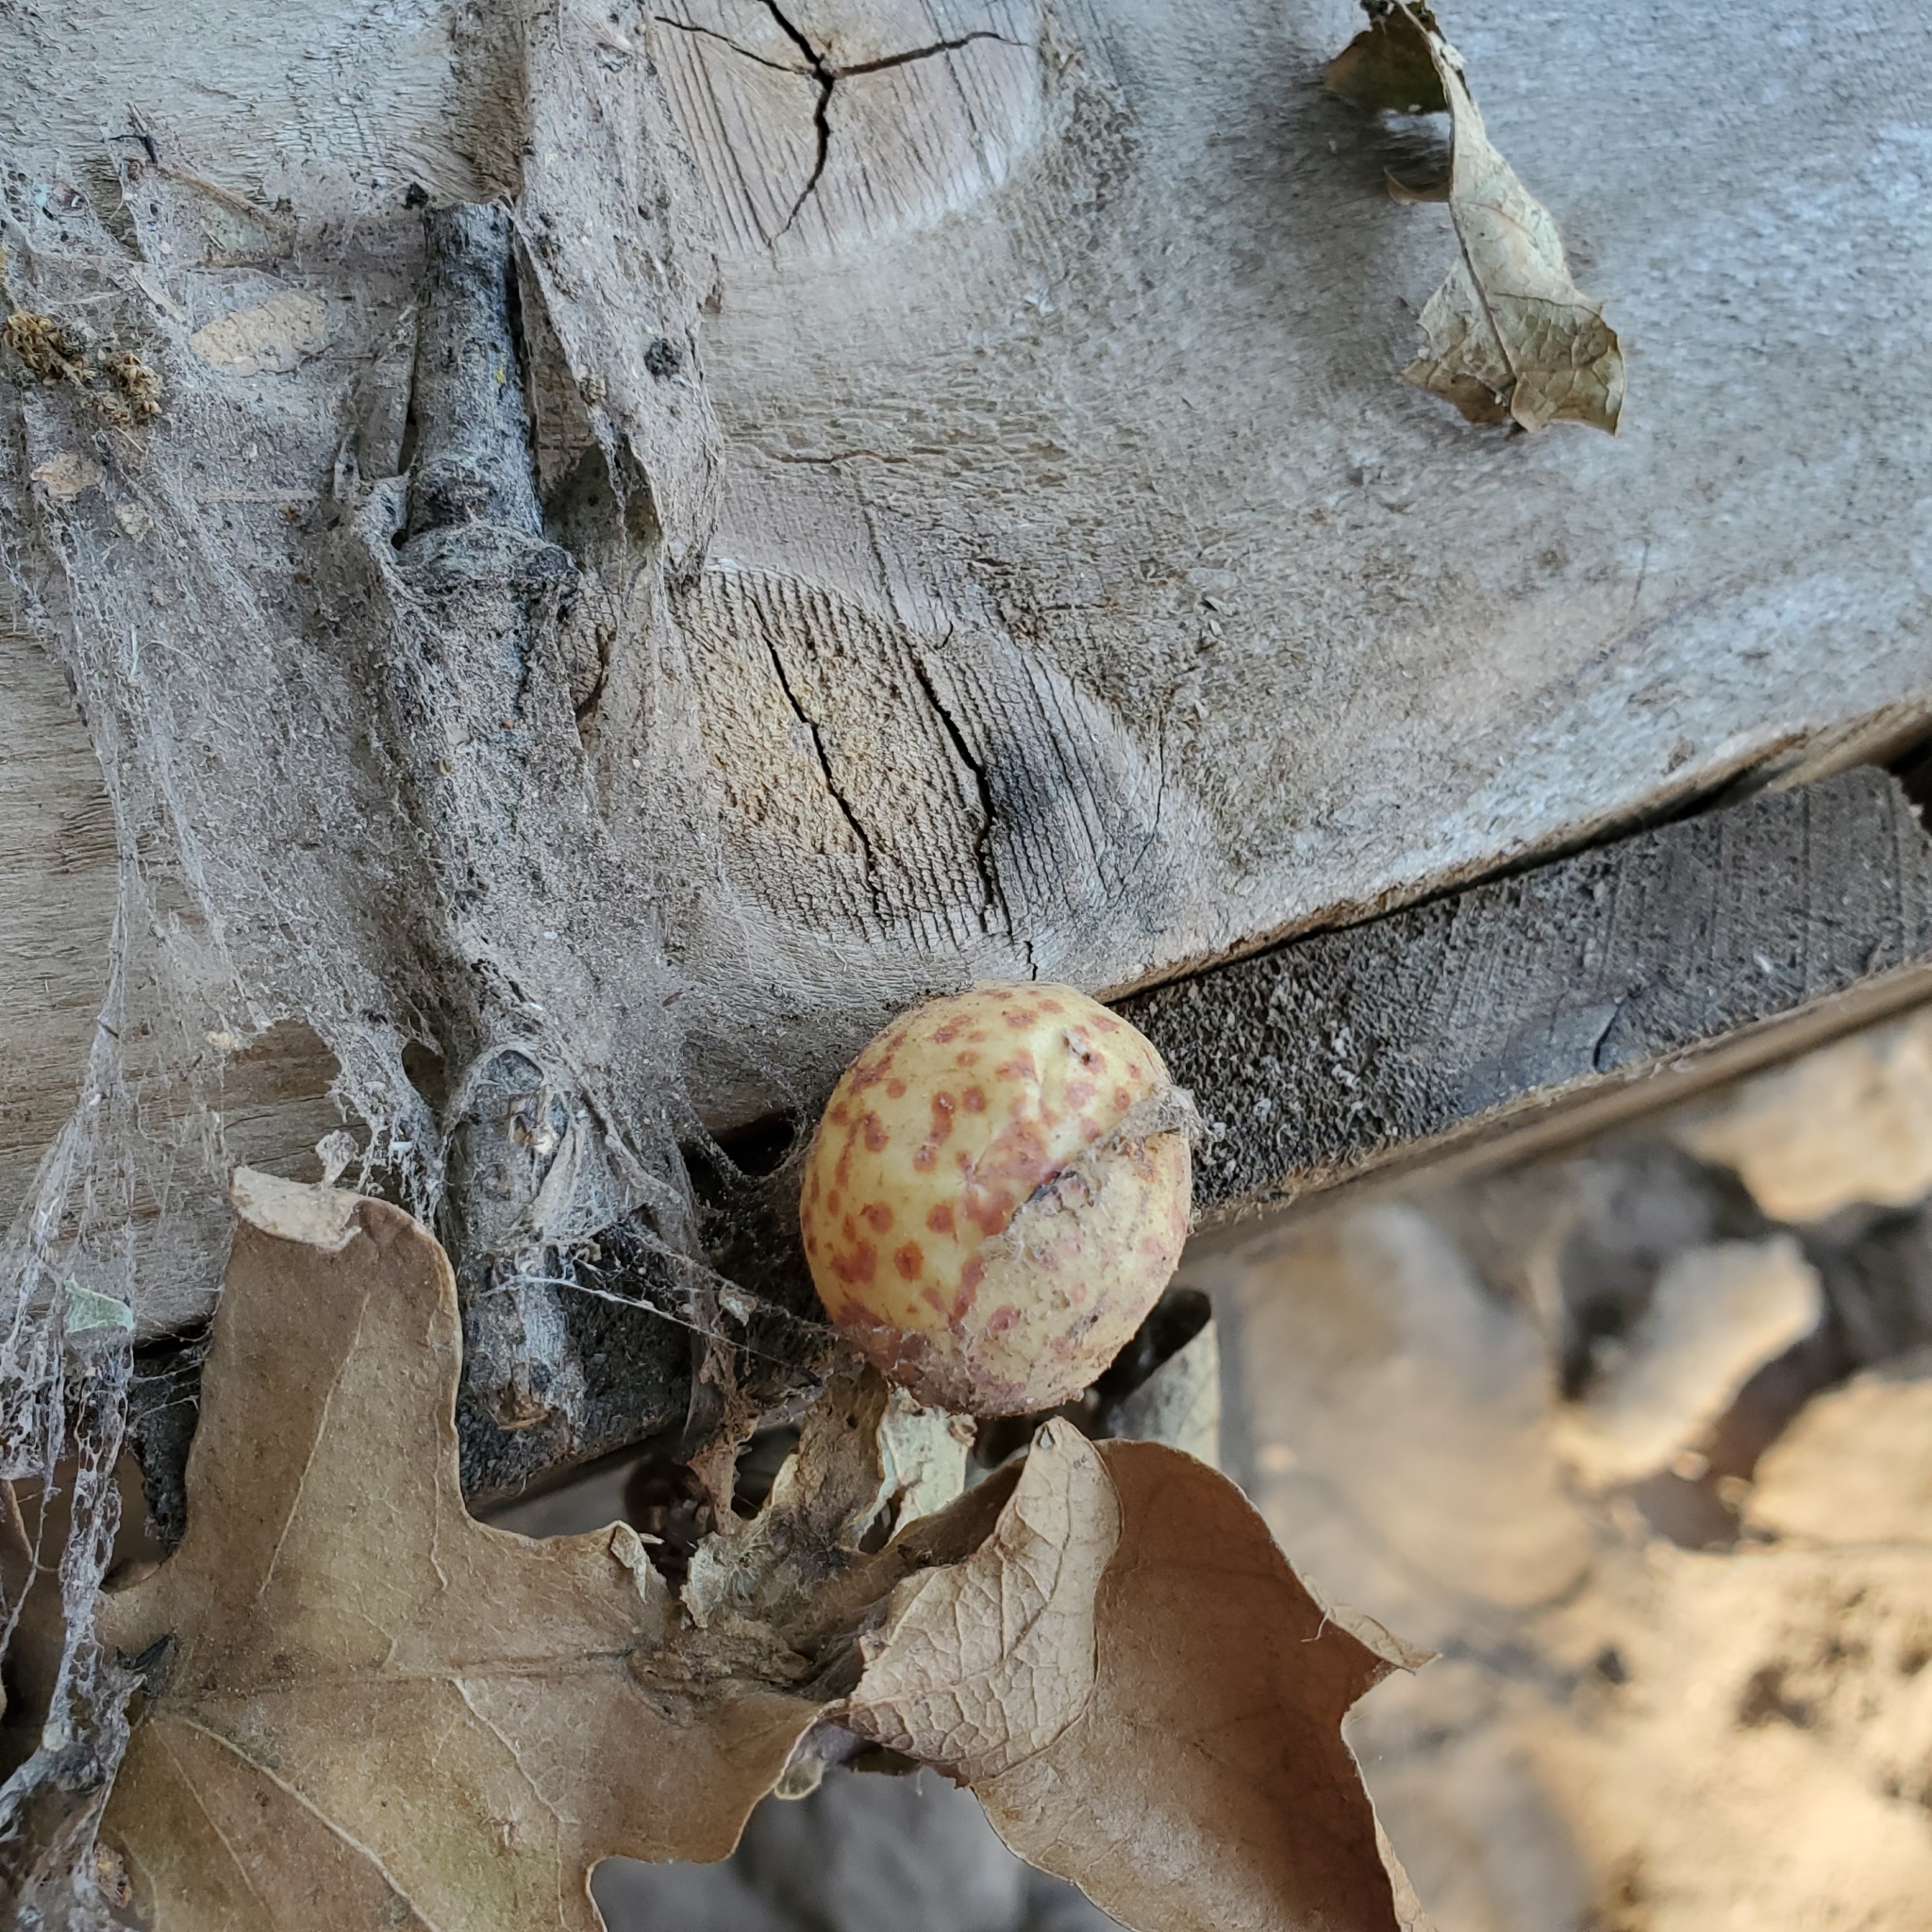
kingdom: Animalia
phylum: Arthropoda
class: Insecta
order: Hymenoptera
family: Cynipidae
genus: Cynips
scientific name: Cynips
